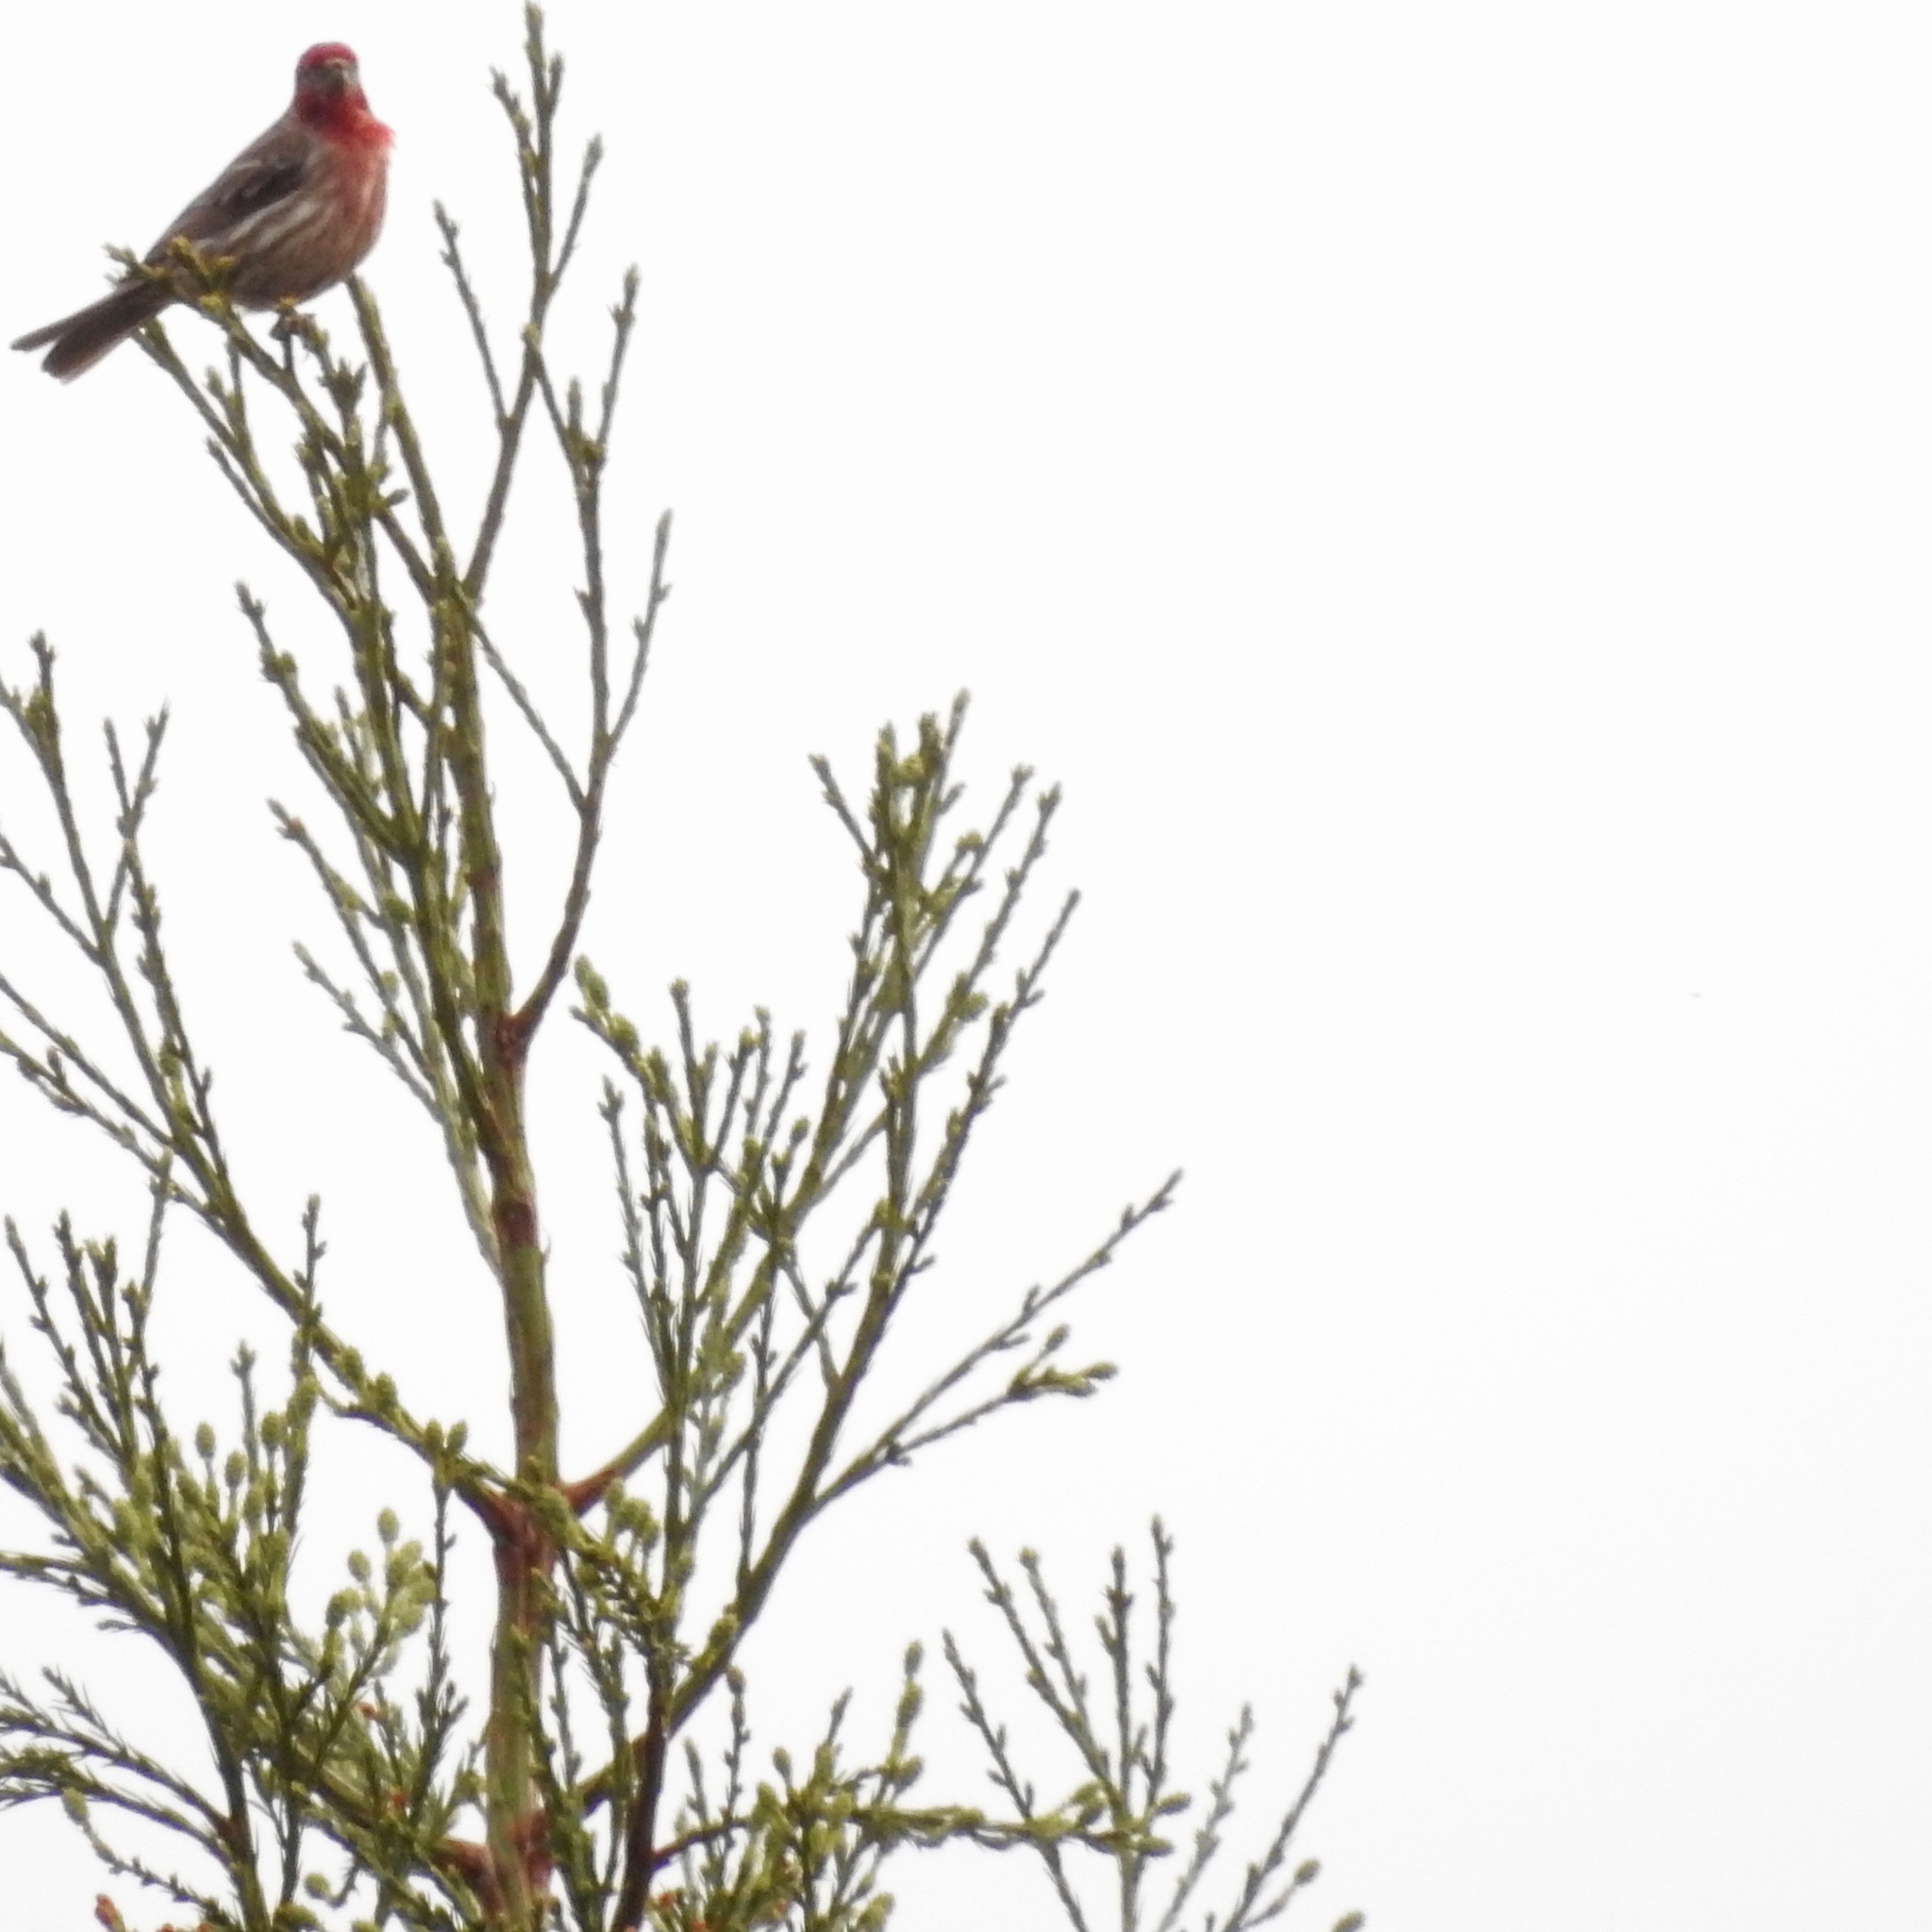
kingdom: Animalia
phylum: Chordata
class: Aves
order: Passeriformes
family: Fringillidae
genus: Haemorhous
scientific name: Haemorhous mexicanus
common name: House finch
